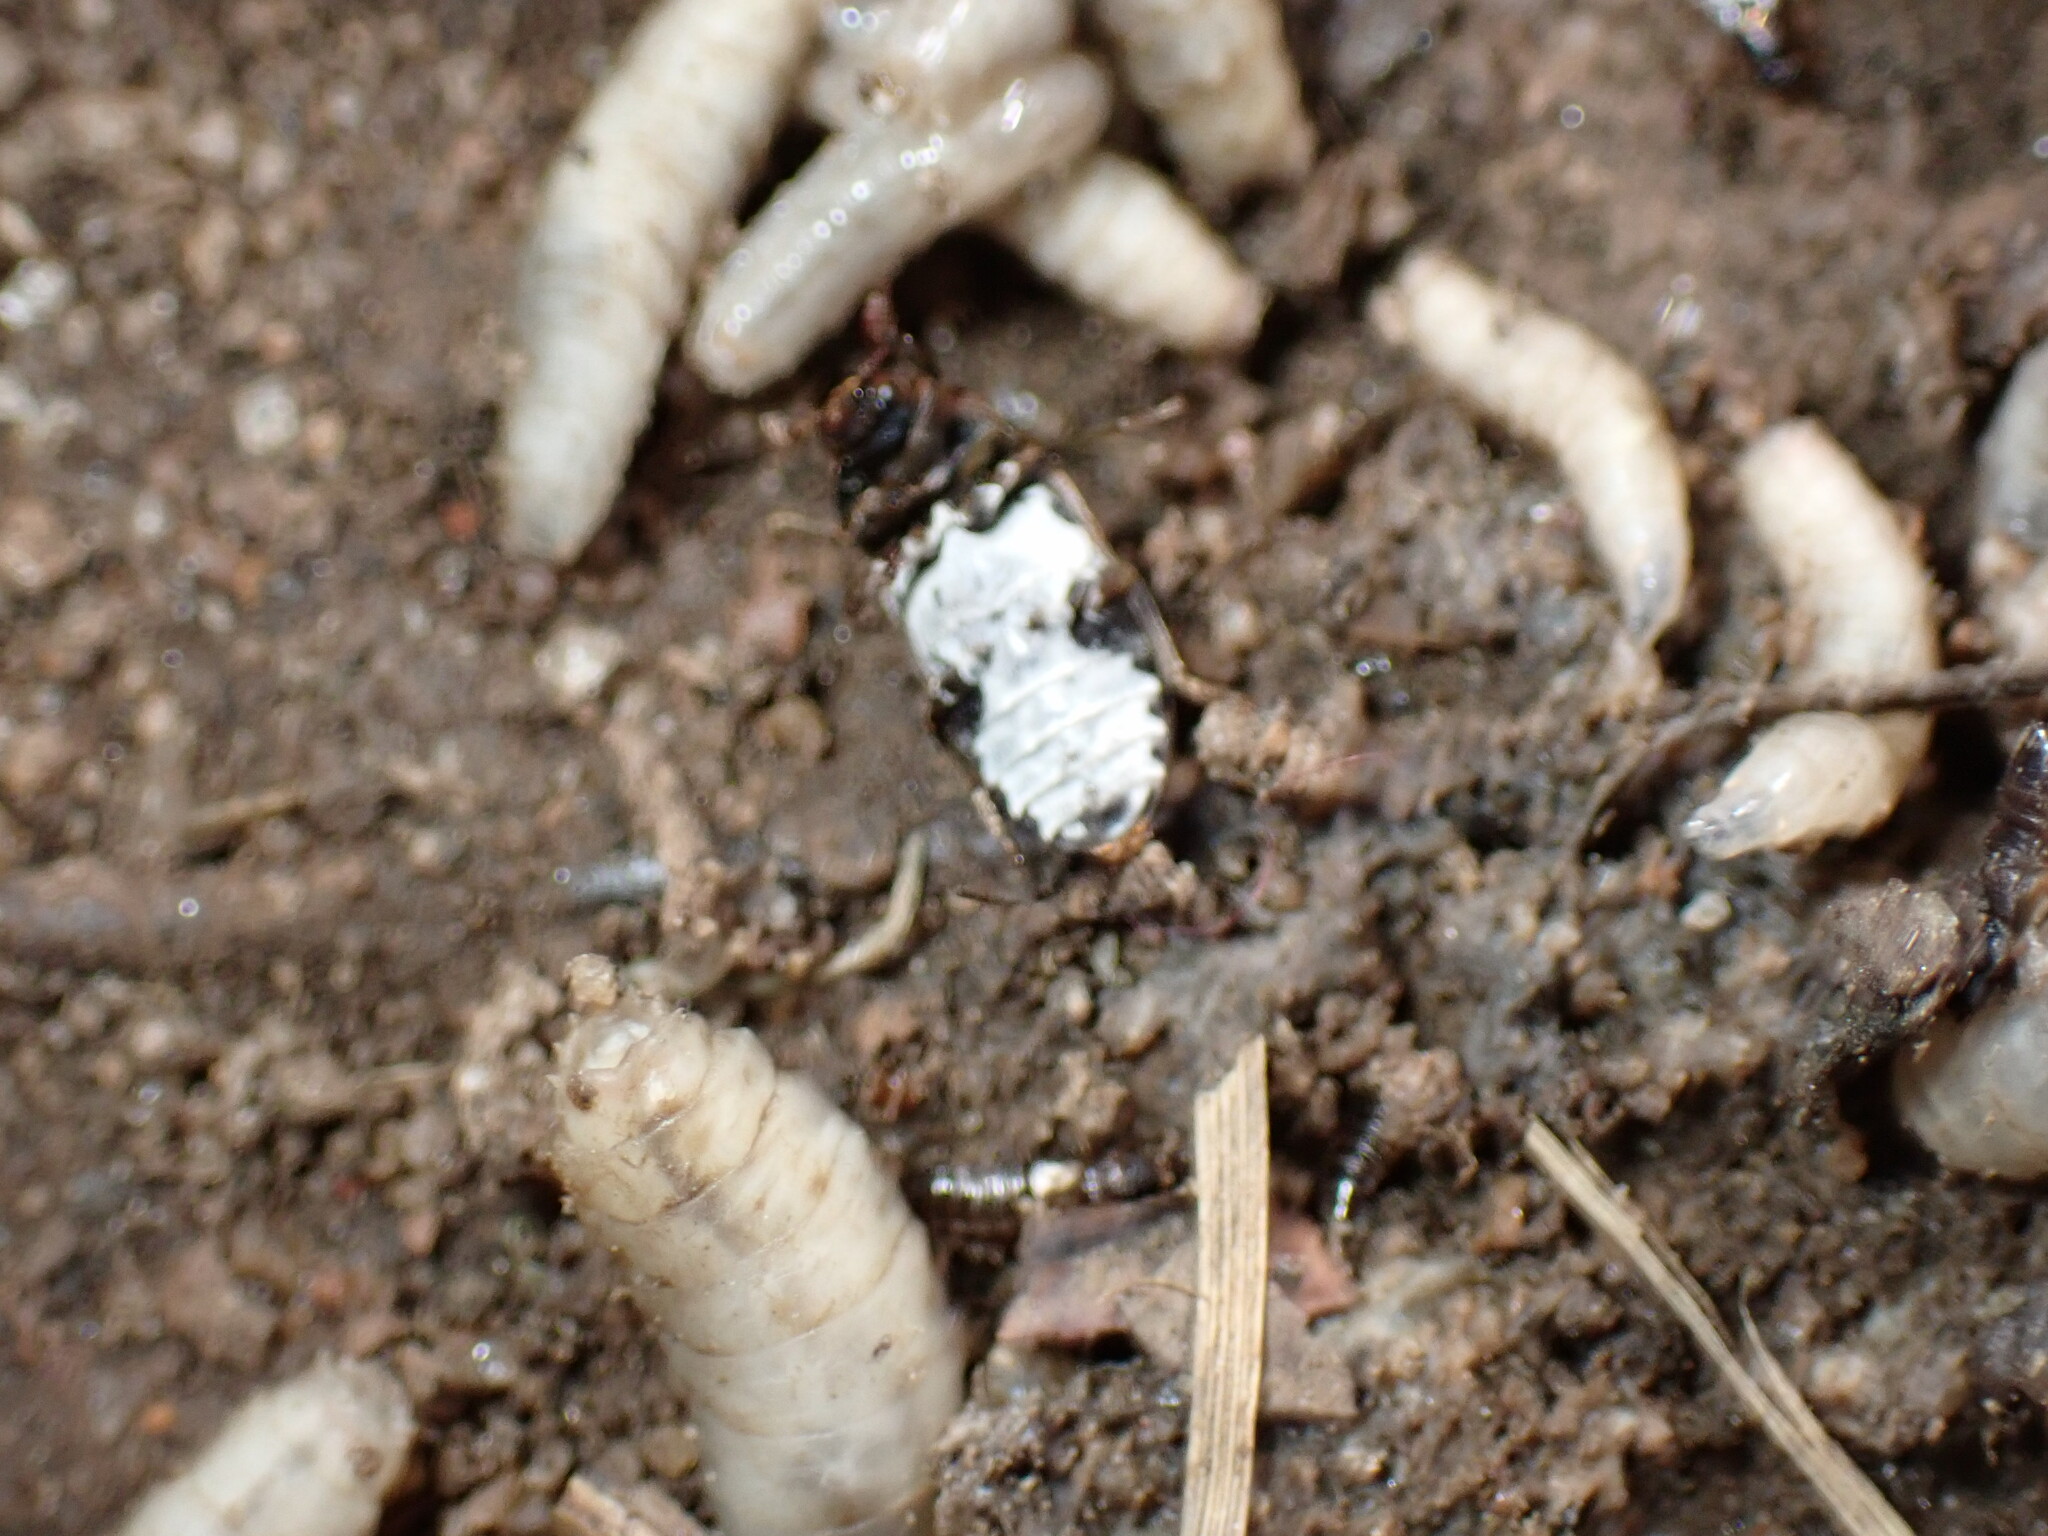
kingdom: Animalia
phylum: Arthropoda
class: Insecta
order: Coleoptera
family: Dermestidae
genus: Dermestes
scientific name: Dermestes undulatus
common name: Wavy carpet beetle
